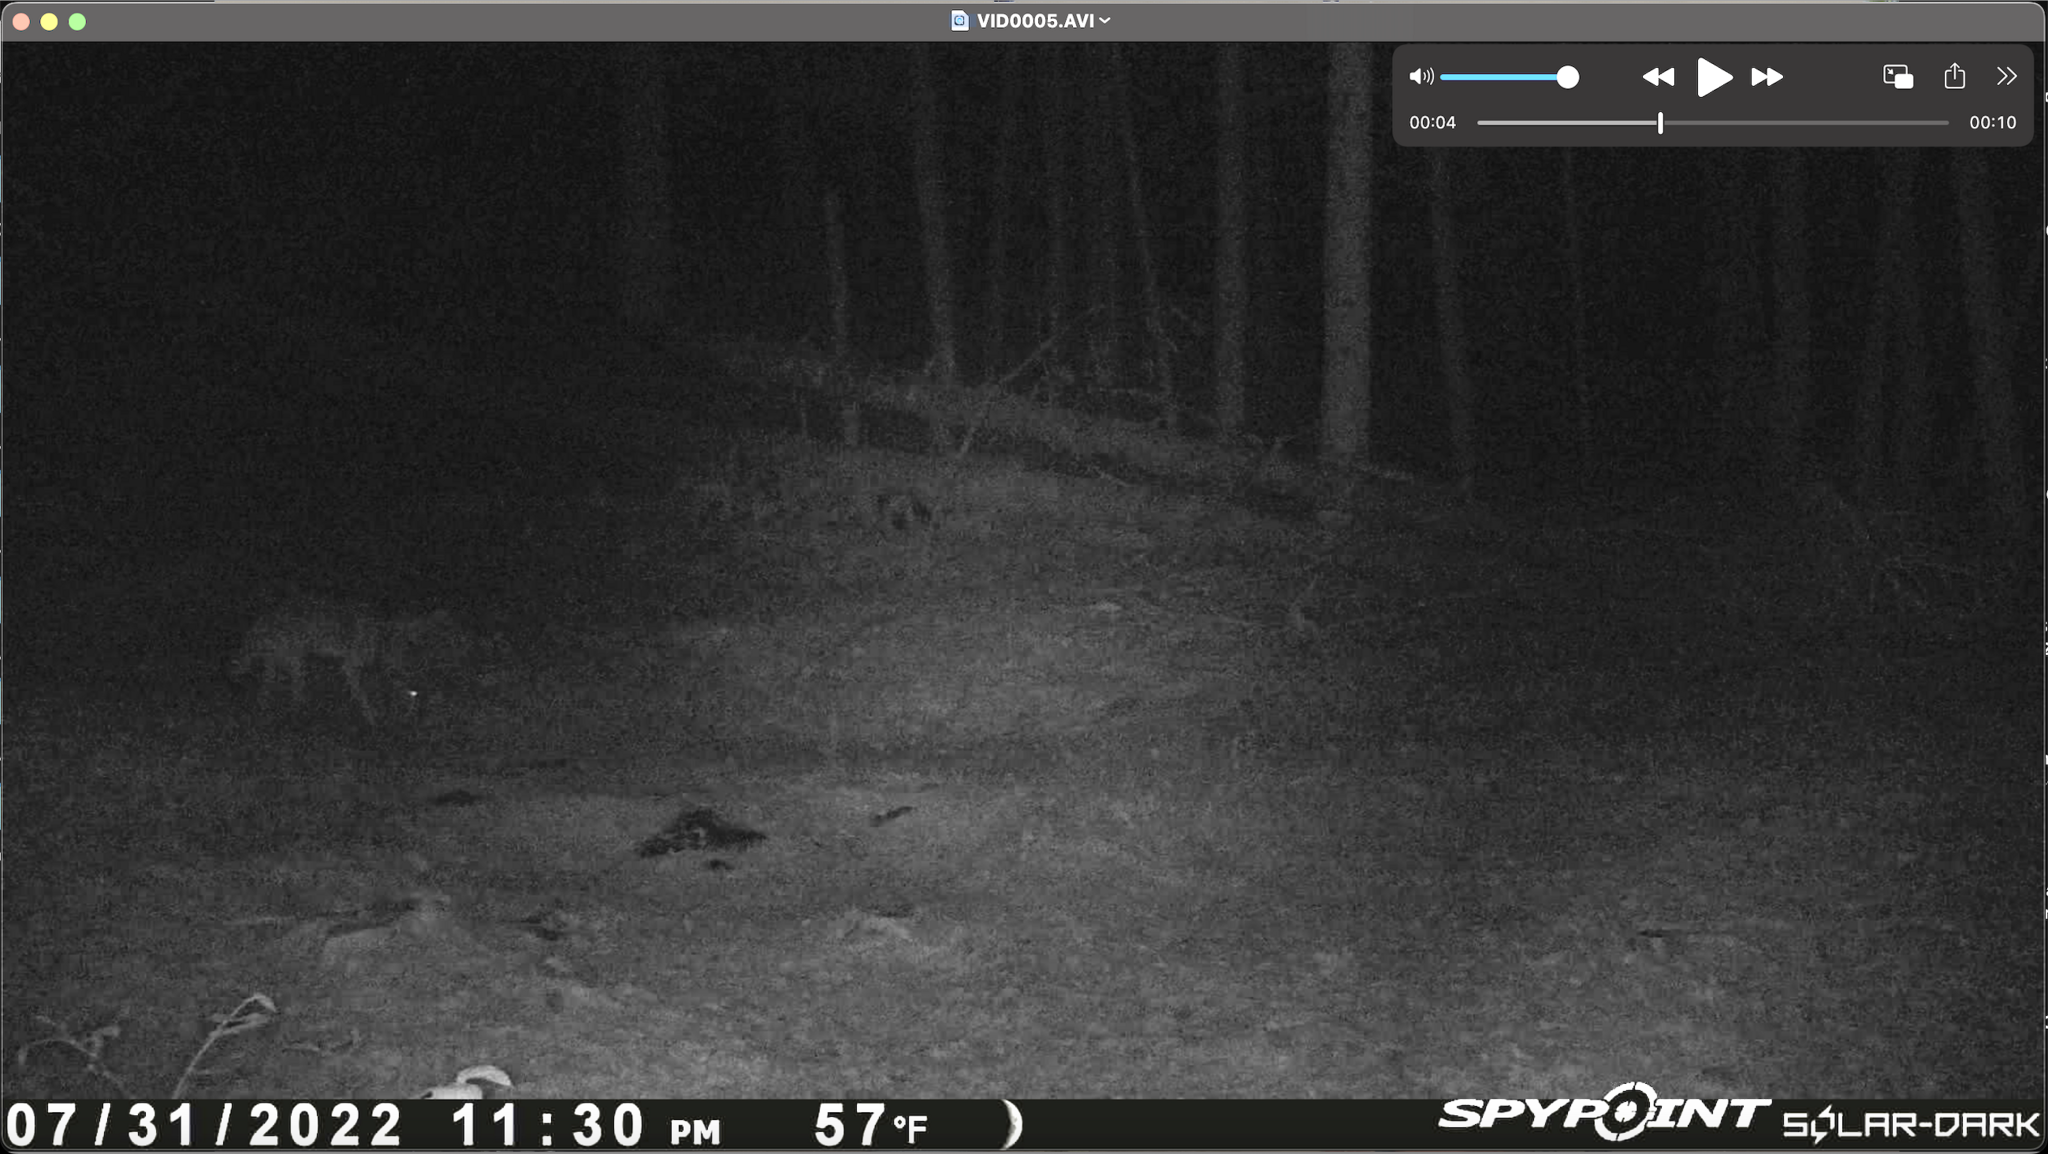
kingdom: Animalia
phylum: Chordata
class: Mammalia
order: Carnivora
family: Canidae
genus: Canis
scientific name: Canis latrans
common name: Coyote
